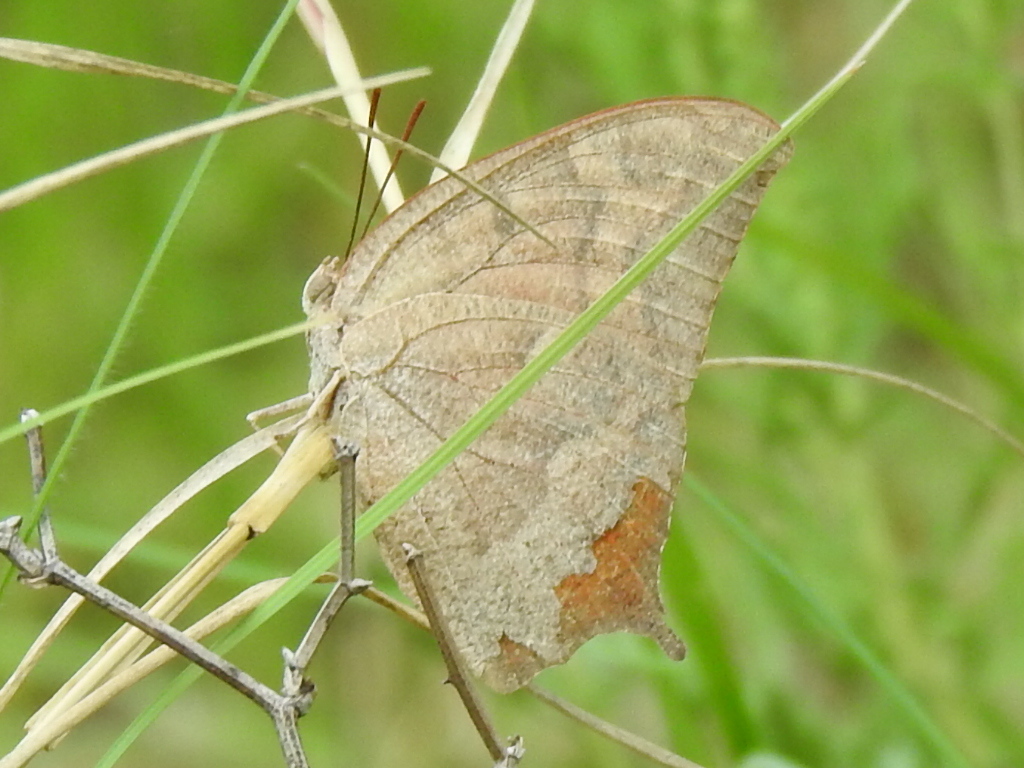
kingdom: Animalia
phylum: Arthropoda
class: Insecta
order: Lepidoptera
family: Nymphalidae
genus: Anaea
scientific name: Anaea andria
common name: Goatweed leafwing
